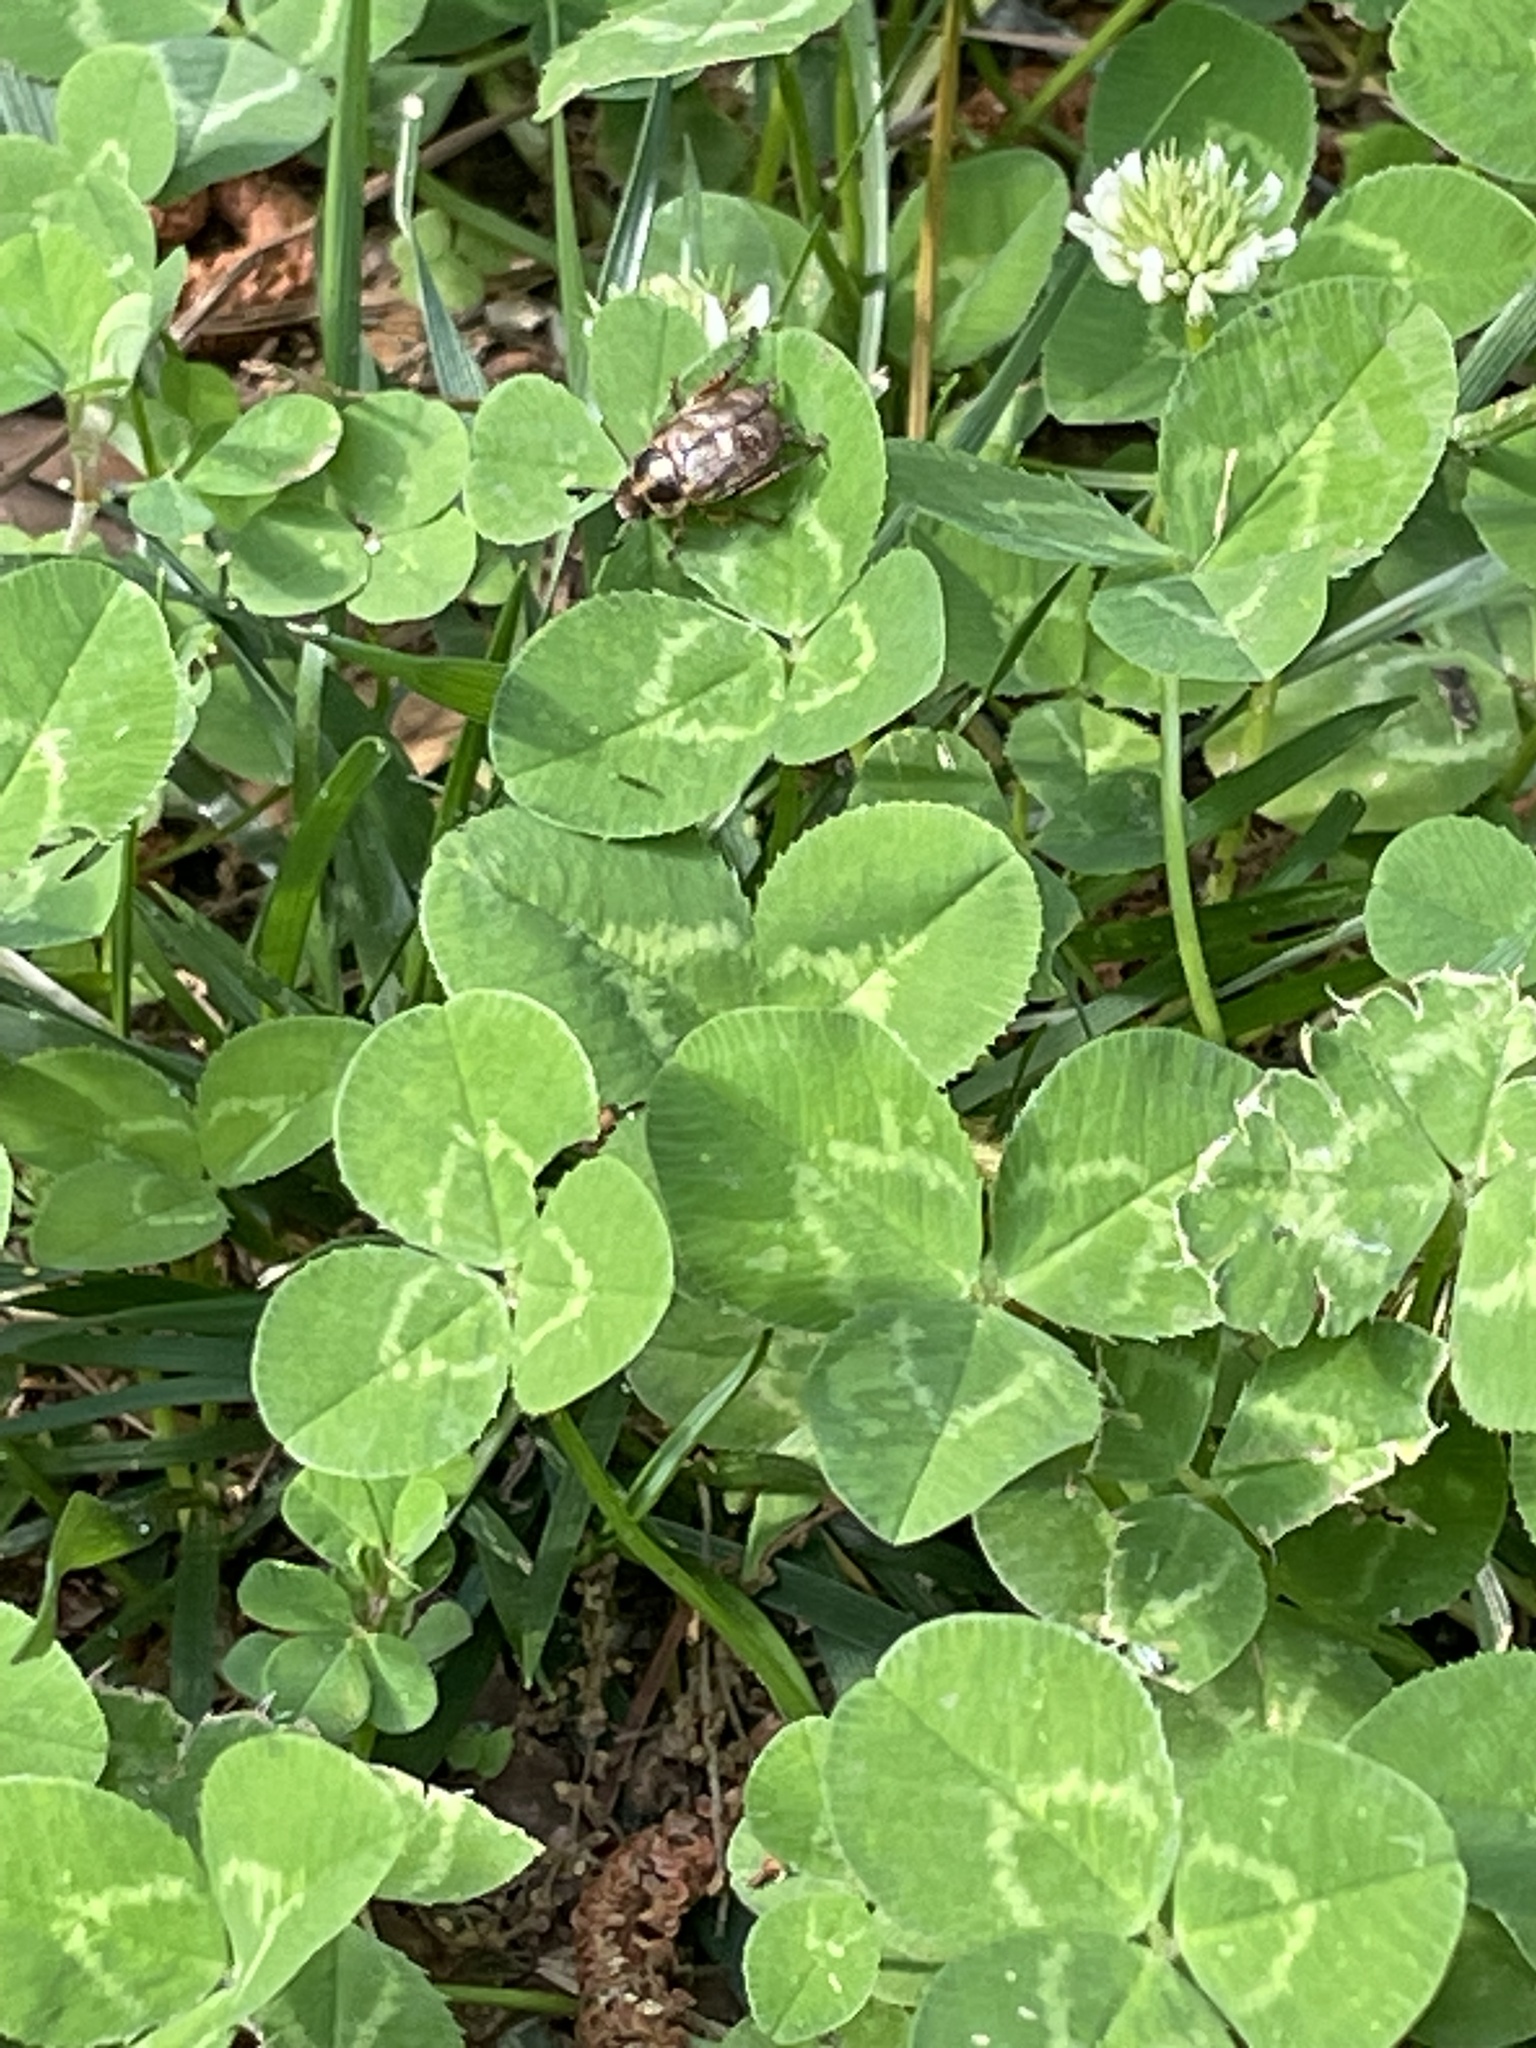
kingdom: Plantae
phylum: Tracheophyta
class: Magnoliopsida
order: Fabales
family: Fabaceae
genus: Trifolium
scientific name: Trifolium repens
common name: White clover
